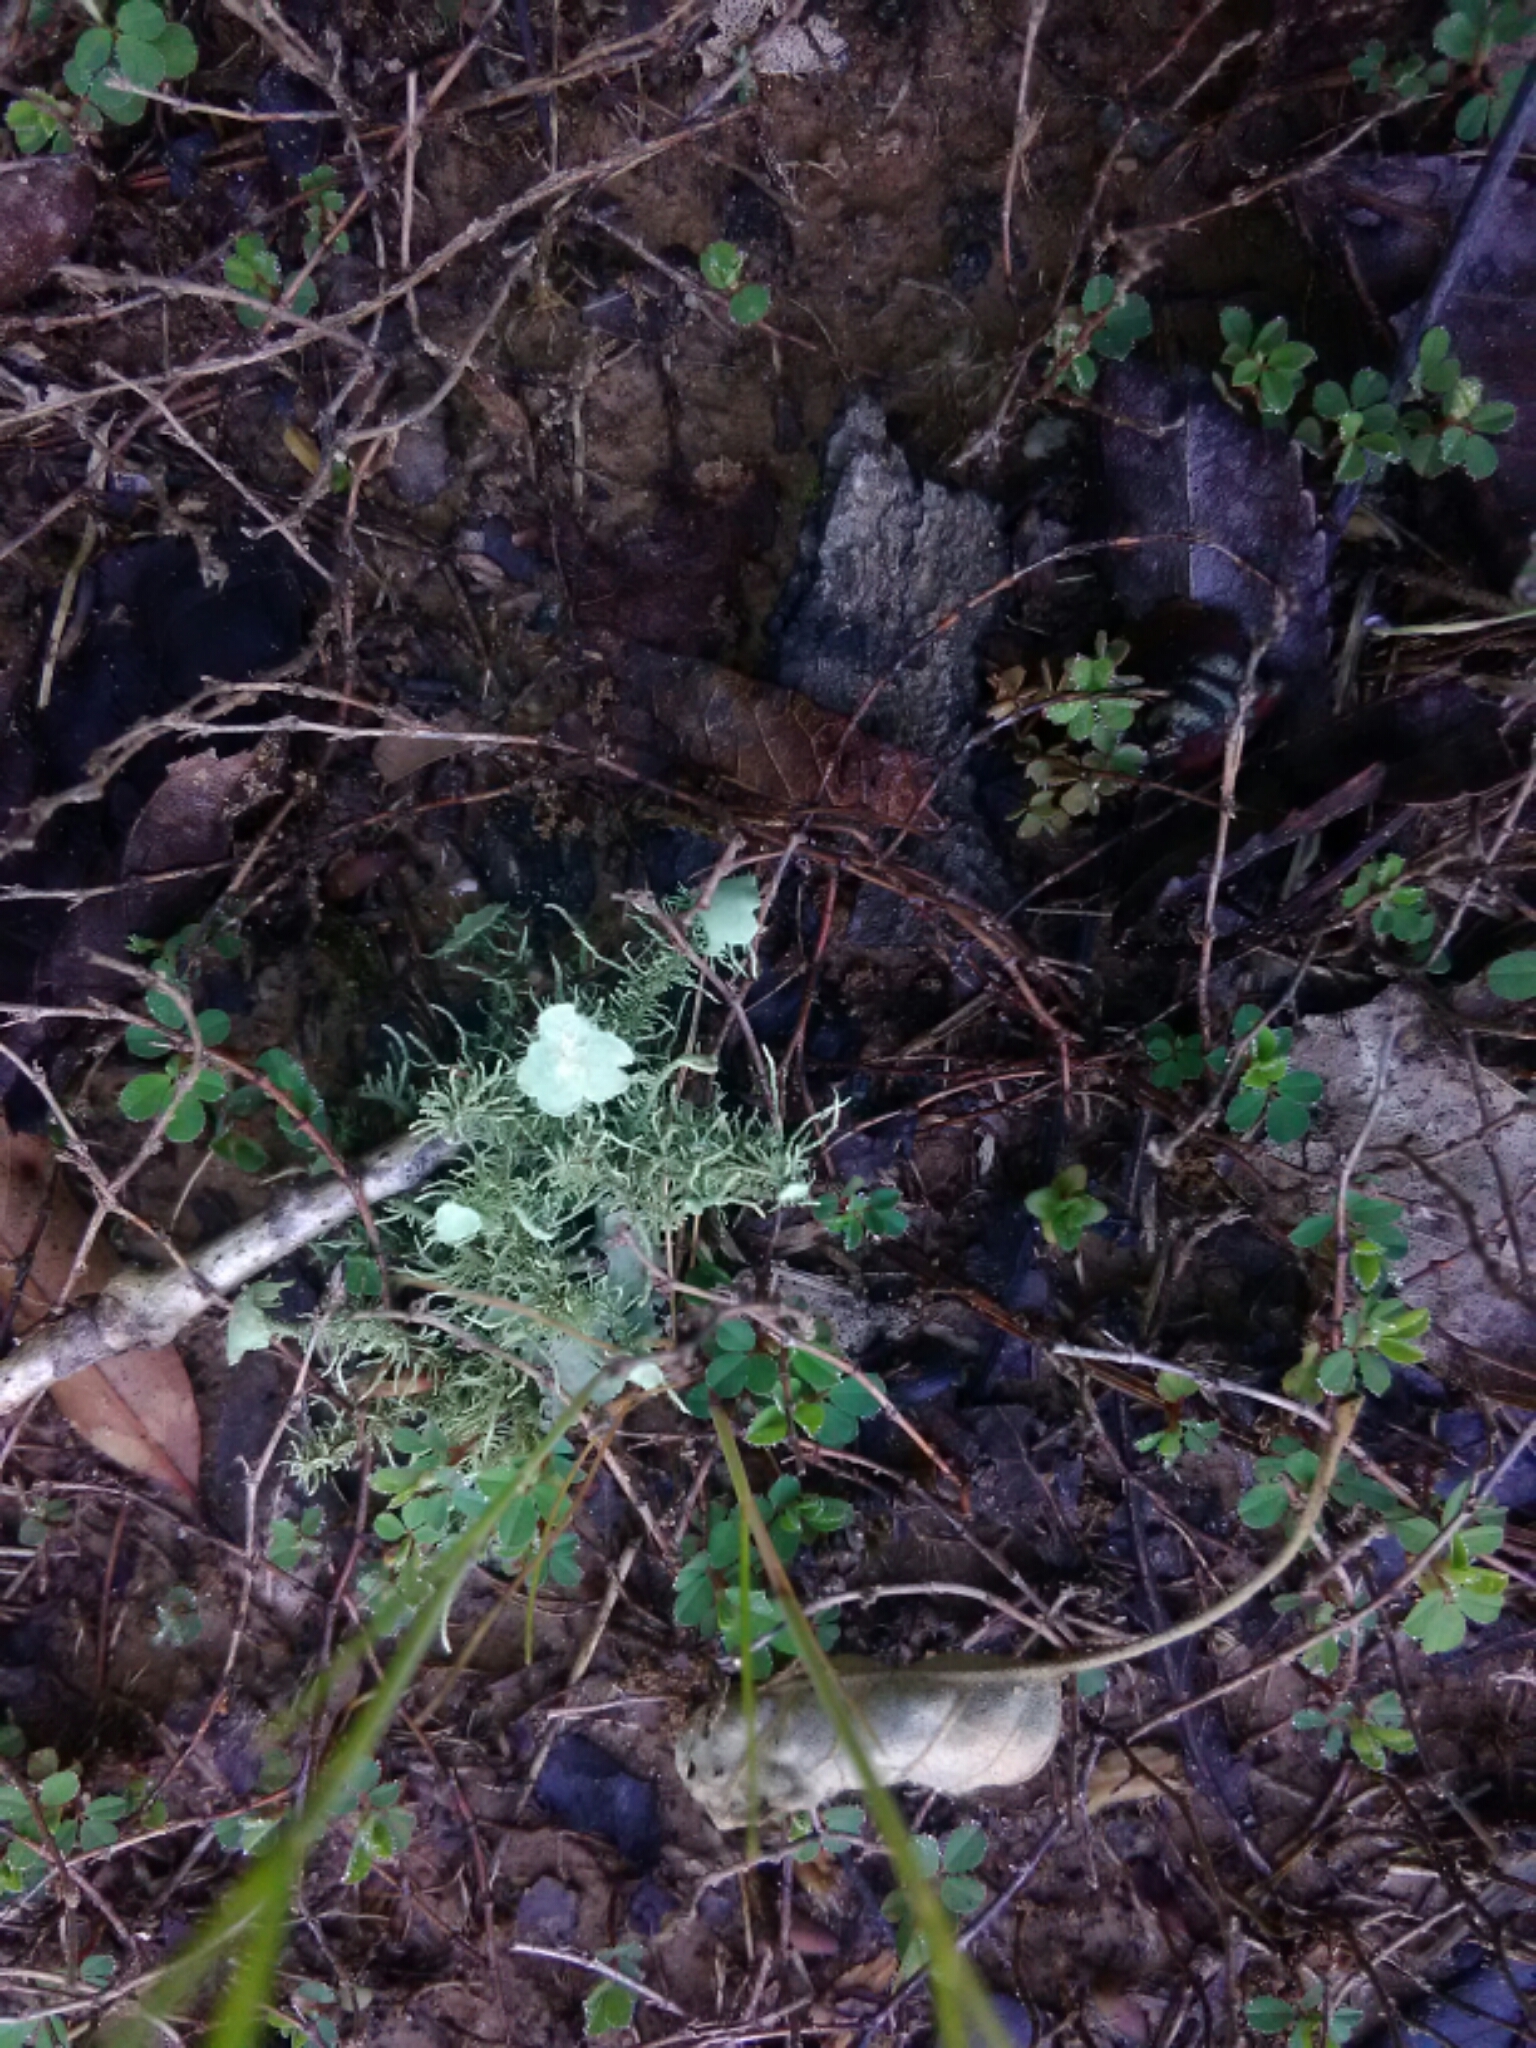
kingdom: Fungi
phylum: Ascomycota
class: Lecanoromycetes
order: Lecanorales
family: Parmeliaceae
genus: Usnea
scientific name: Usnea strigosa
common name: Bushy beard lichen
